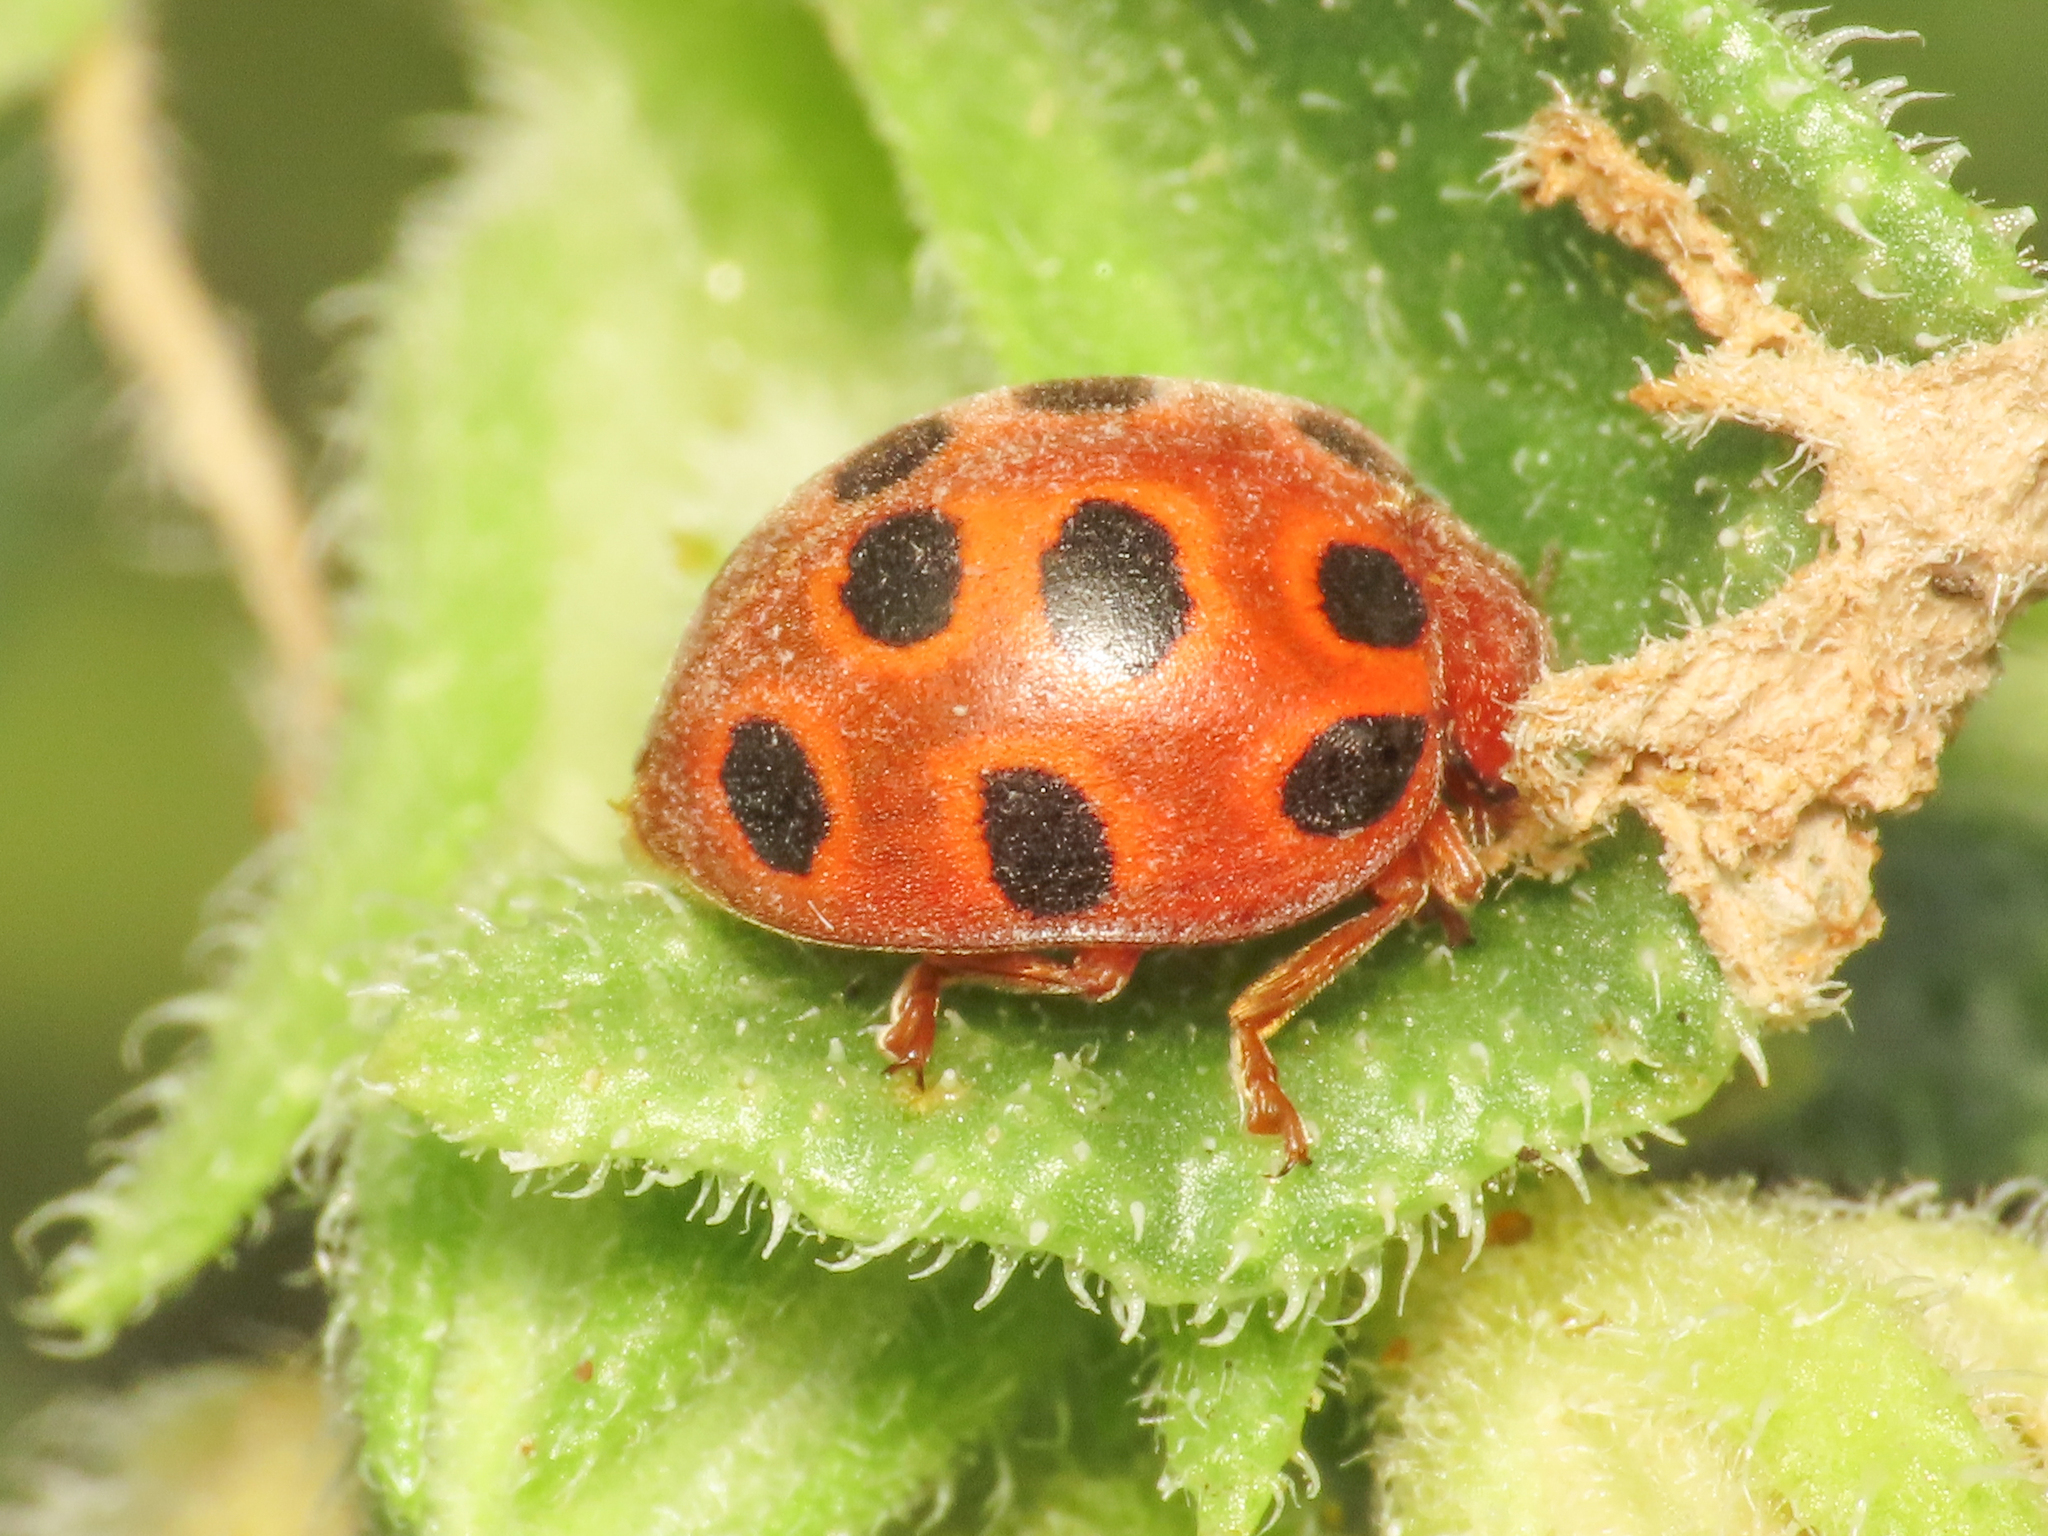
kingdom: Animalia
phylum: Arthropoda
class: Insecta
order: Coleoptera
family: Coccinellidae
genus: Chnootriba
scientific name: Chnootriba elaterii
